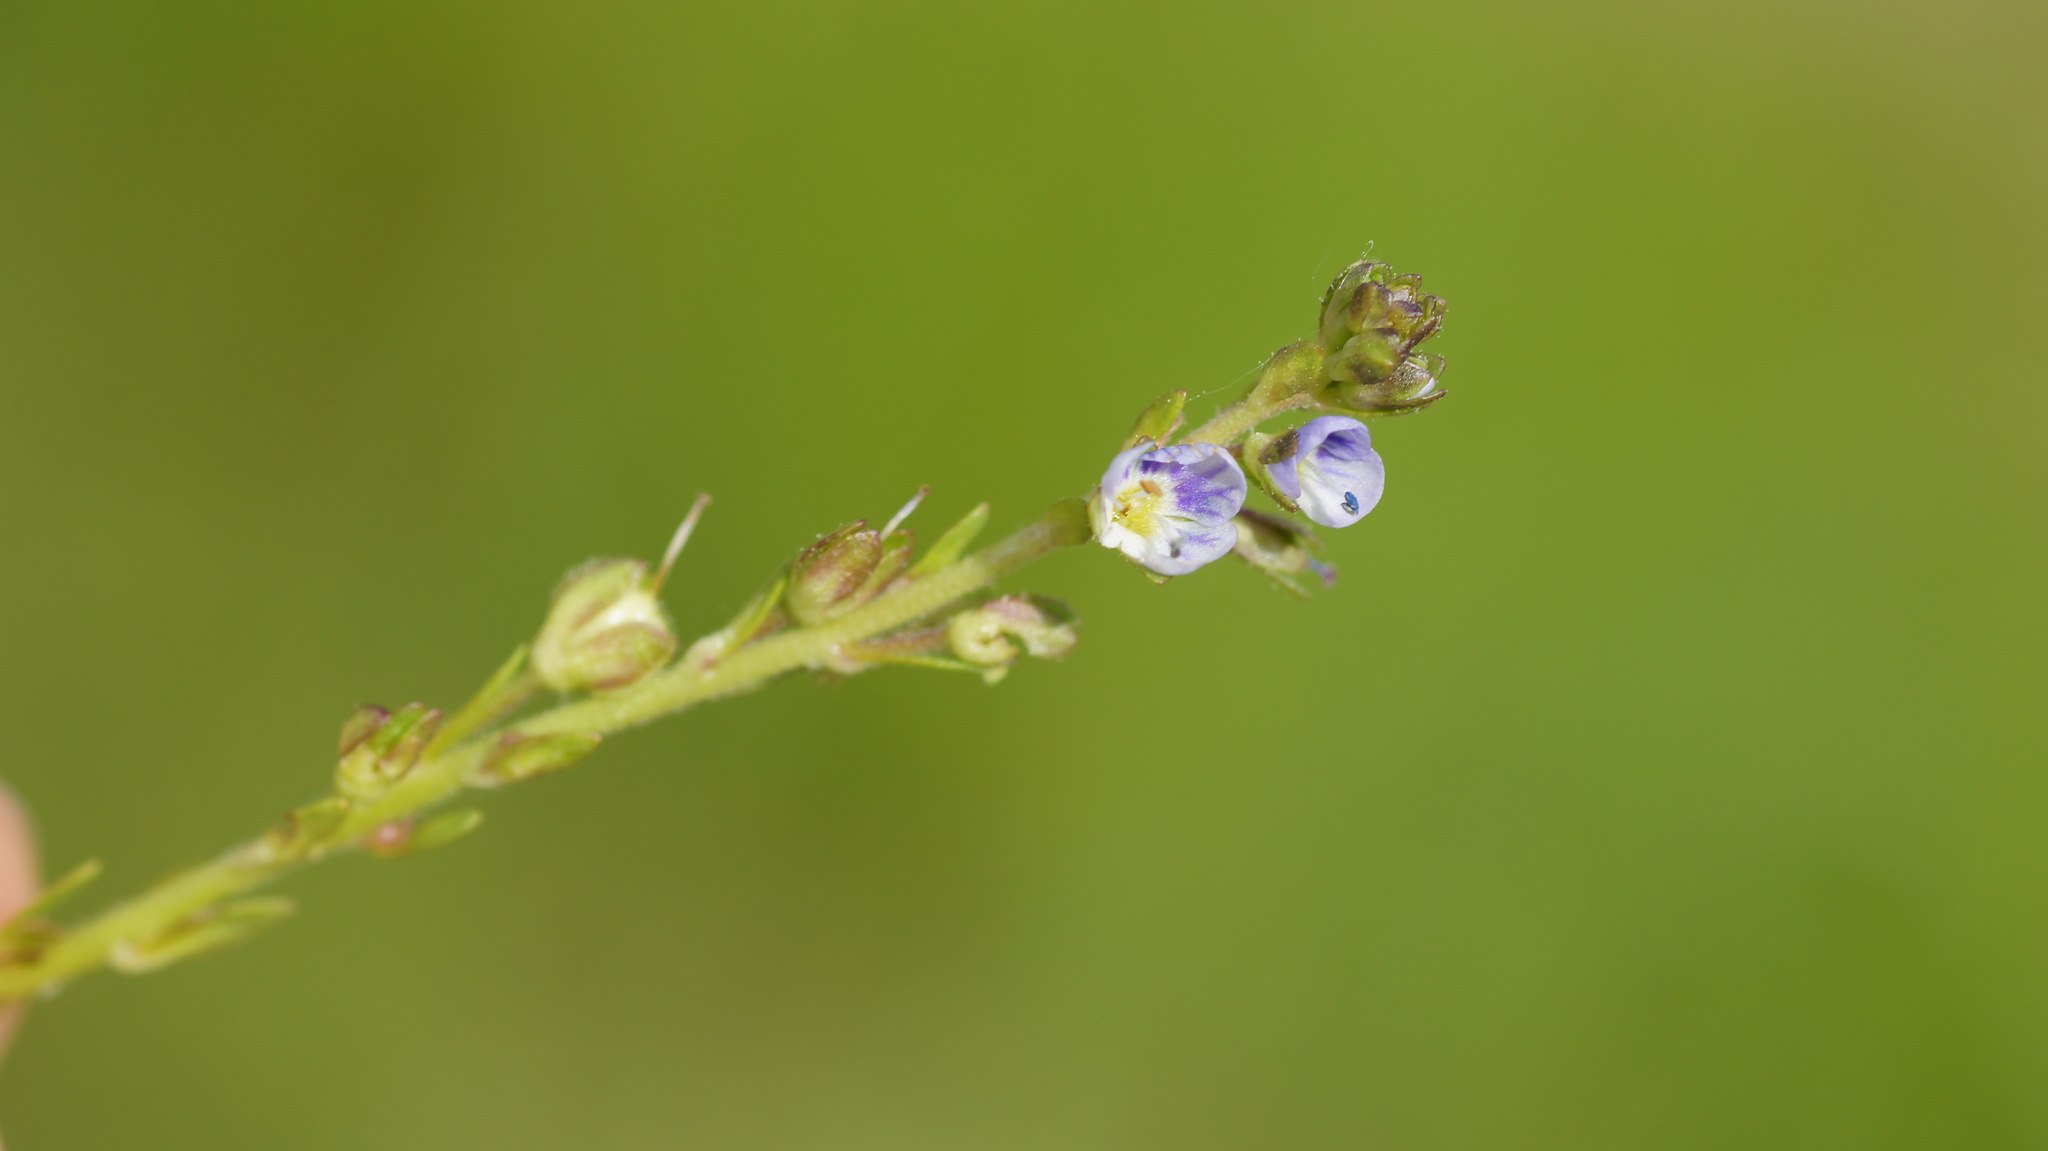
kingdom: Plantae
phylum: Tracheophyta
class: Magnoliopsida
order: Lamiales
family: Plantaginaceae
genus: Veronica
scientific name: Veronica serpyllifolia
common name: Thyme-leaved speedwell
